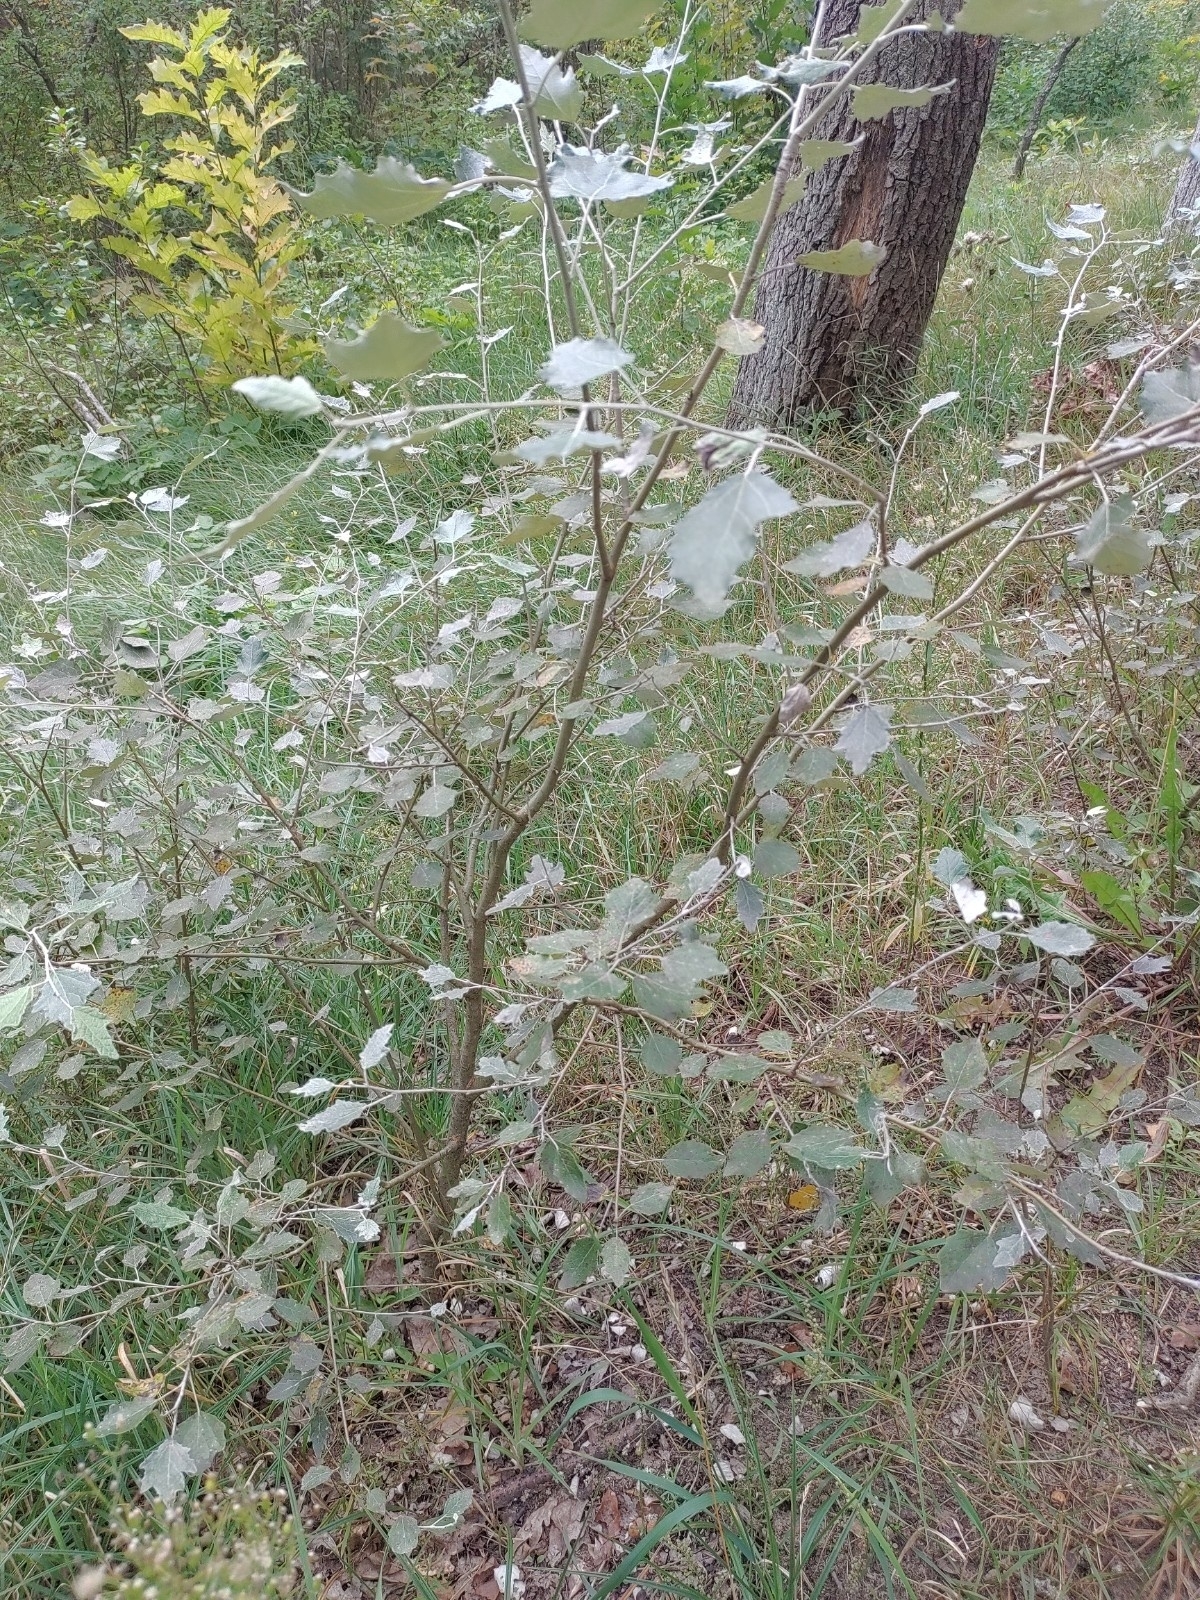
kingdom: Plantae
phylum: Tracheophyta
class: Magnoliopsida
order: Malpighiales
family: Salicaceae
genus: Populus
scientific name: Populus alba
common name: White poplar
